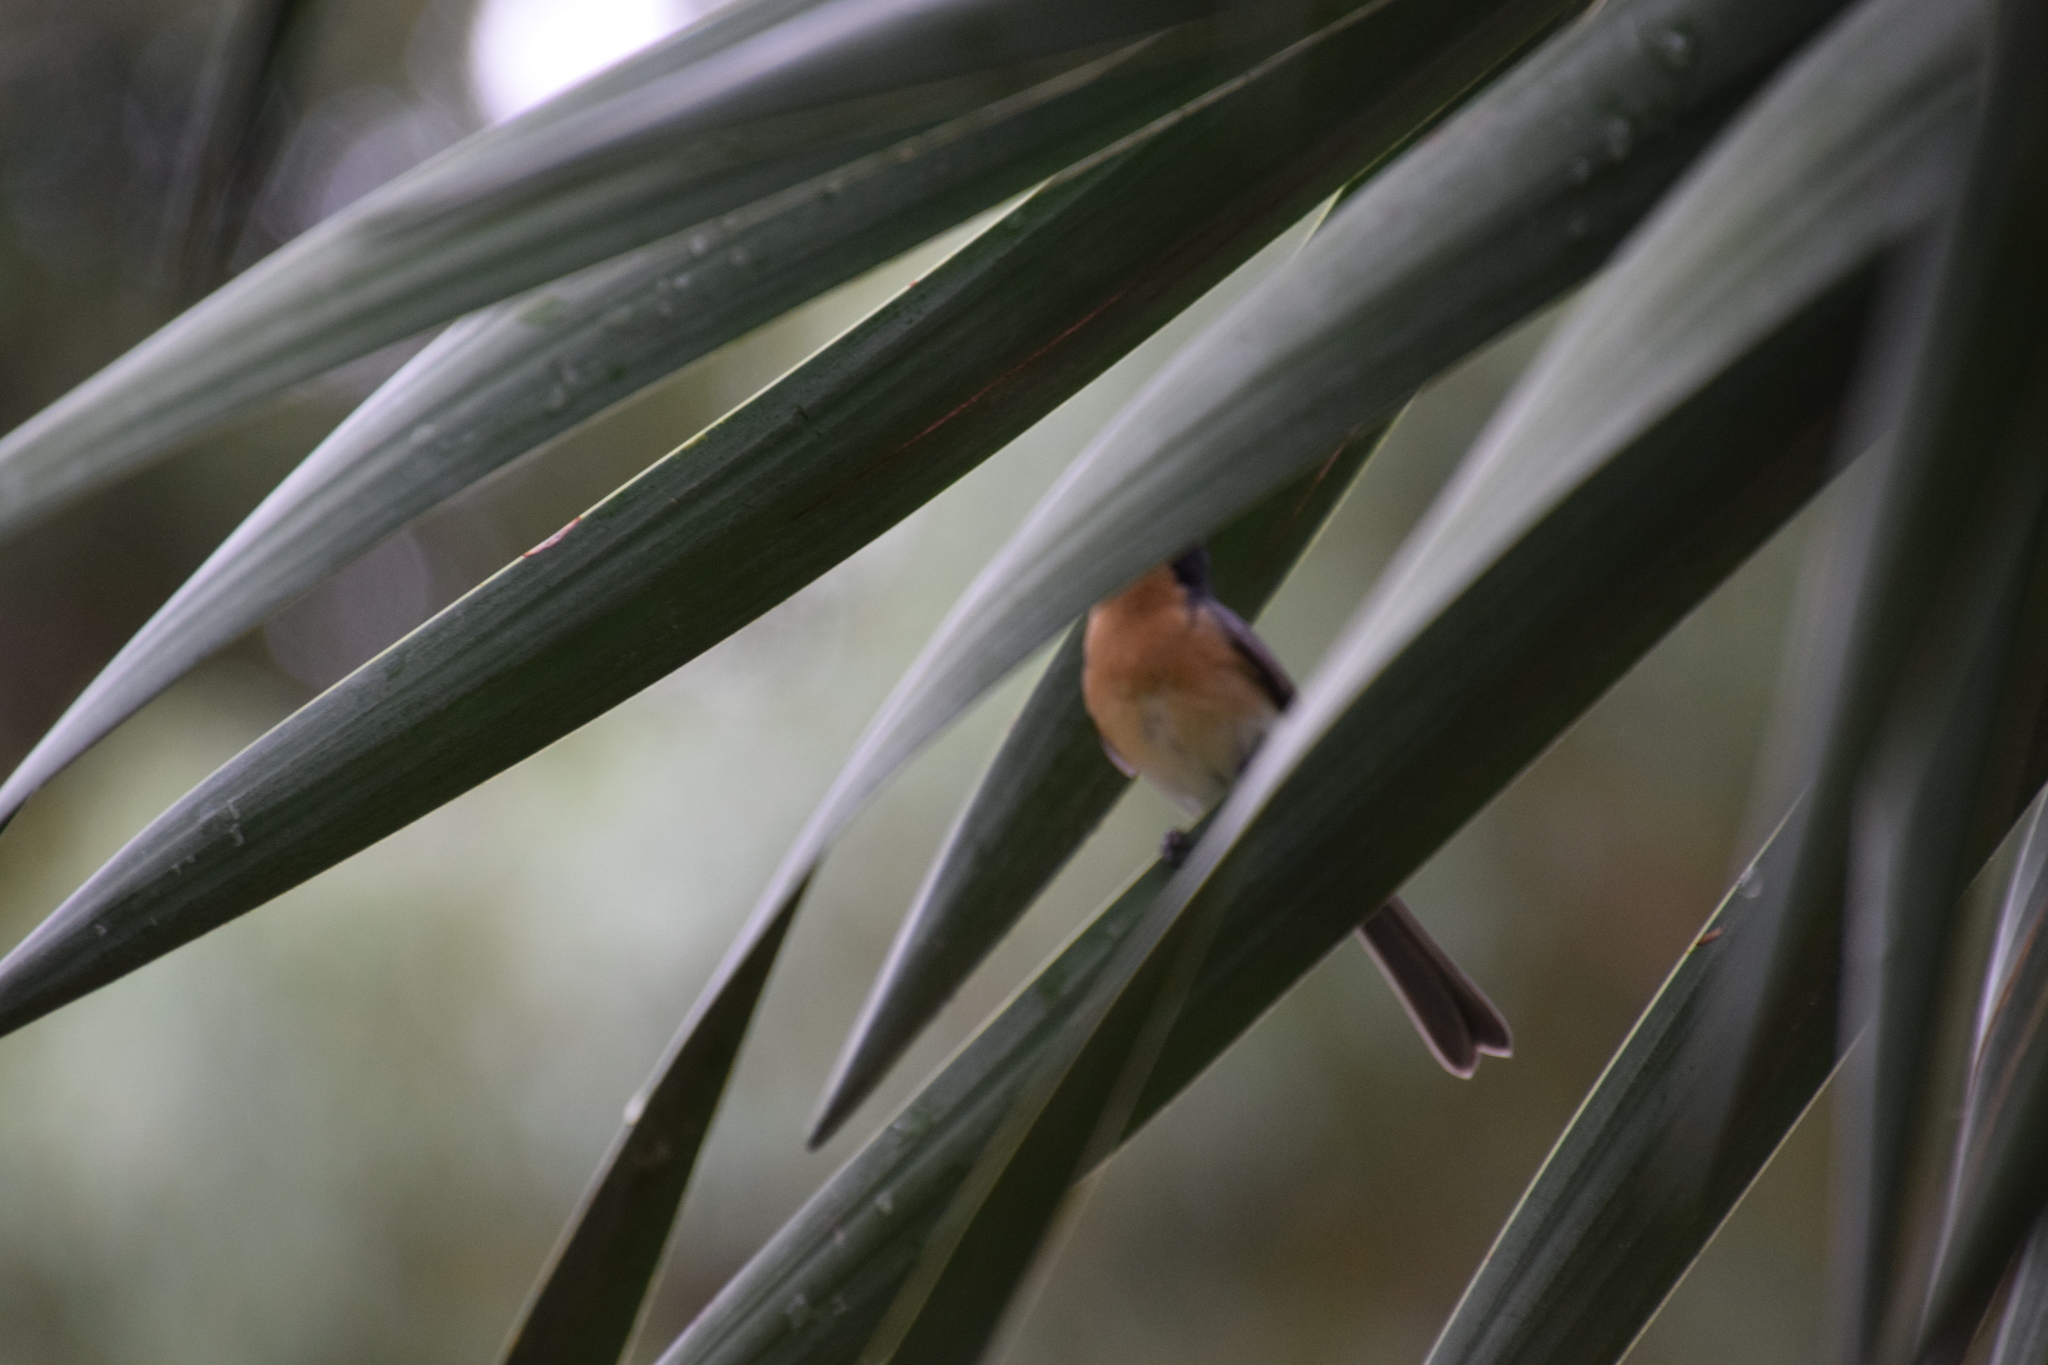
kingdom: Animalia
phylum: Chordata
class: Aves
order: Passeriformes
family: Monarchidae
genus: Myiagra
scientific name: Myiagra rubecula
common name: Leaden flycatcher
